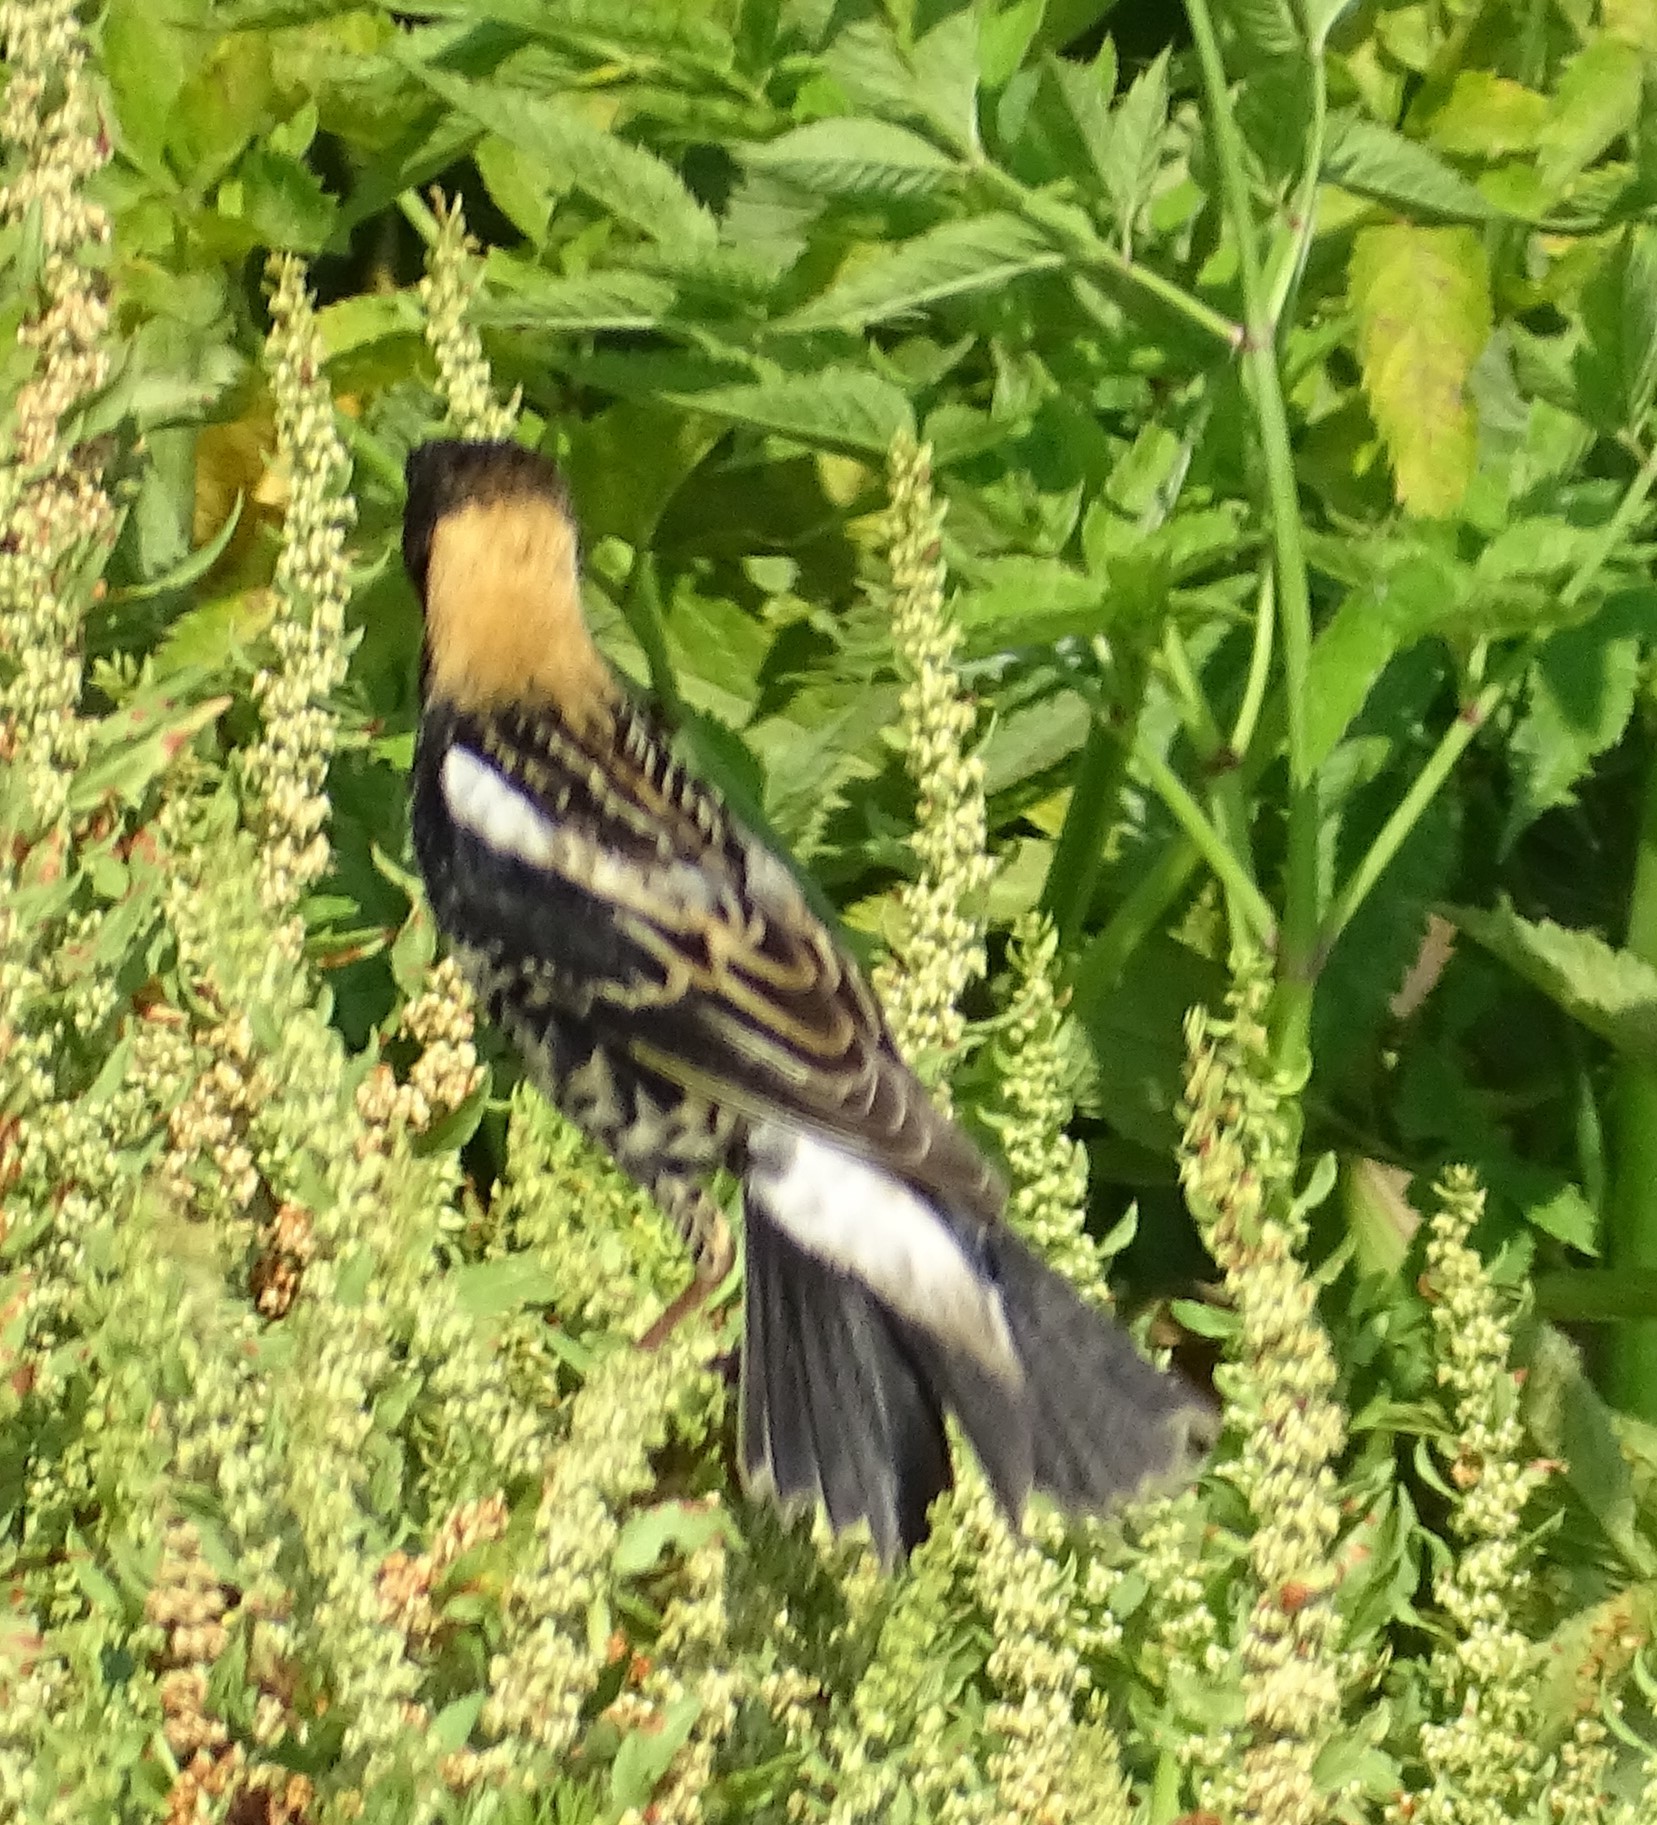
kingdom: Animalia
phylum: Chordata
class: Aves
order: Passeriformes
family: Icteridae
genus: Dolichonyx
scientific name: Dolichonyx oryzivorus
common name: Bobolink
